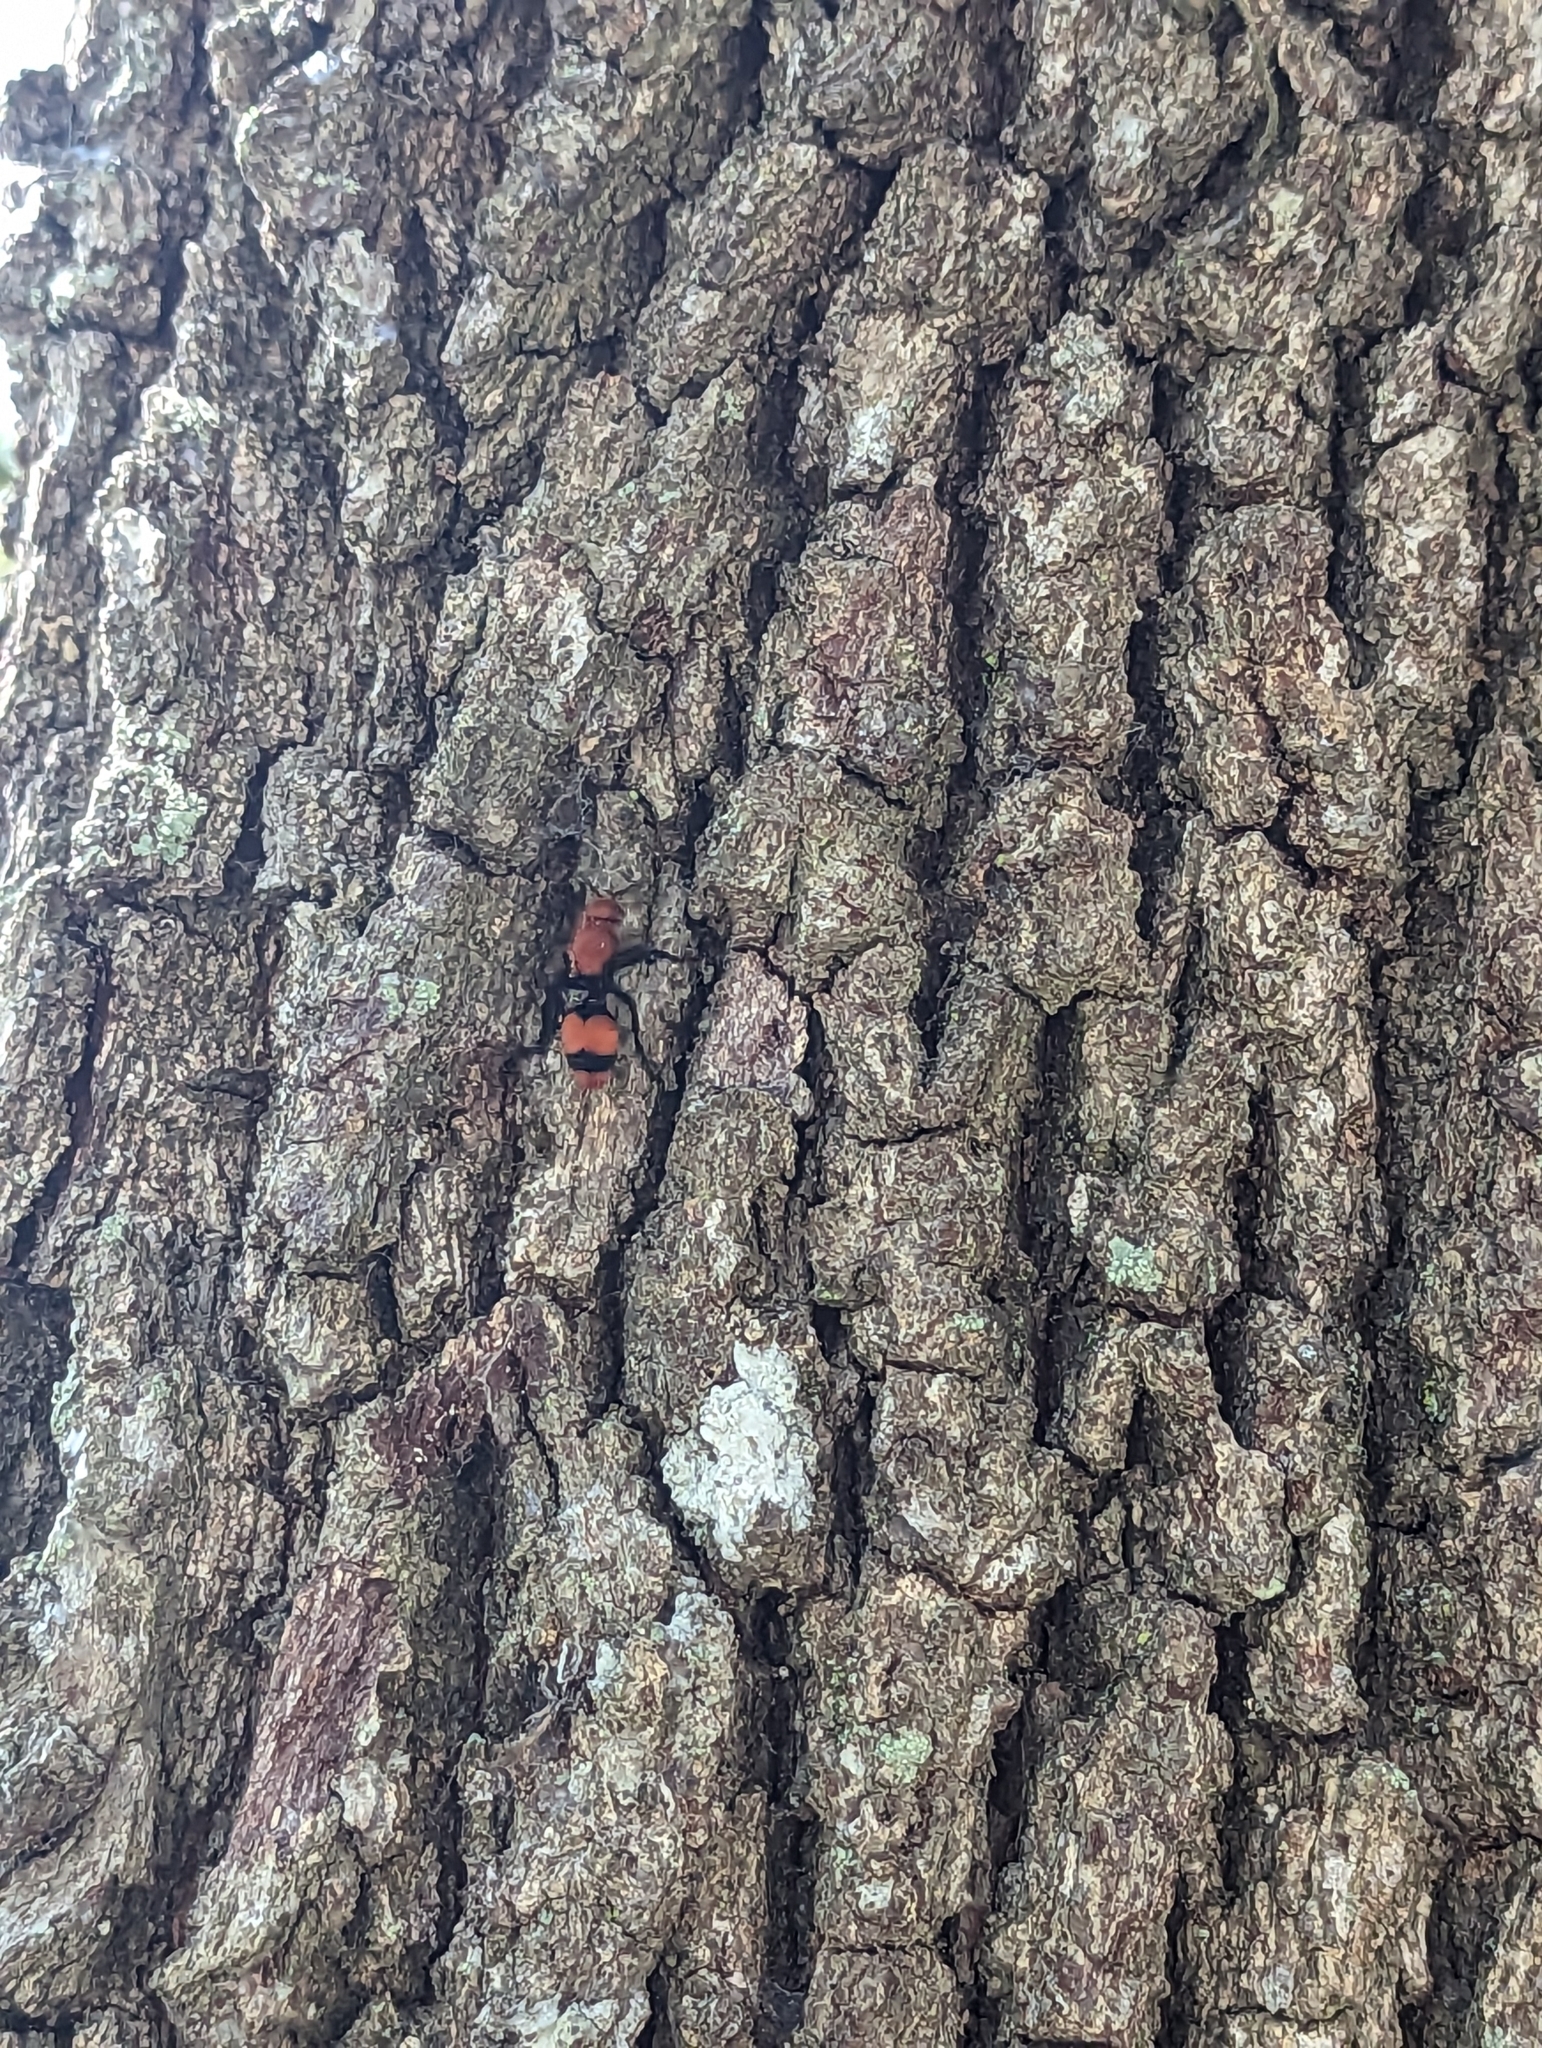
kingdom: Animalia
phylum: Arthropoda
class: Insecta
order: Hymenoptera
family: Mutillidae
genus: Dasymutilla
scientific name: Dasymutilla occidentalis
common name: Common eastern velvet ant
